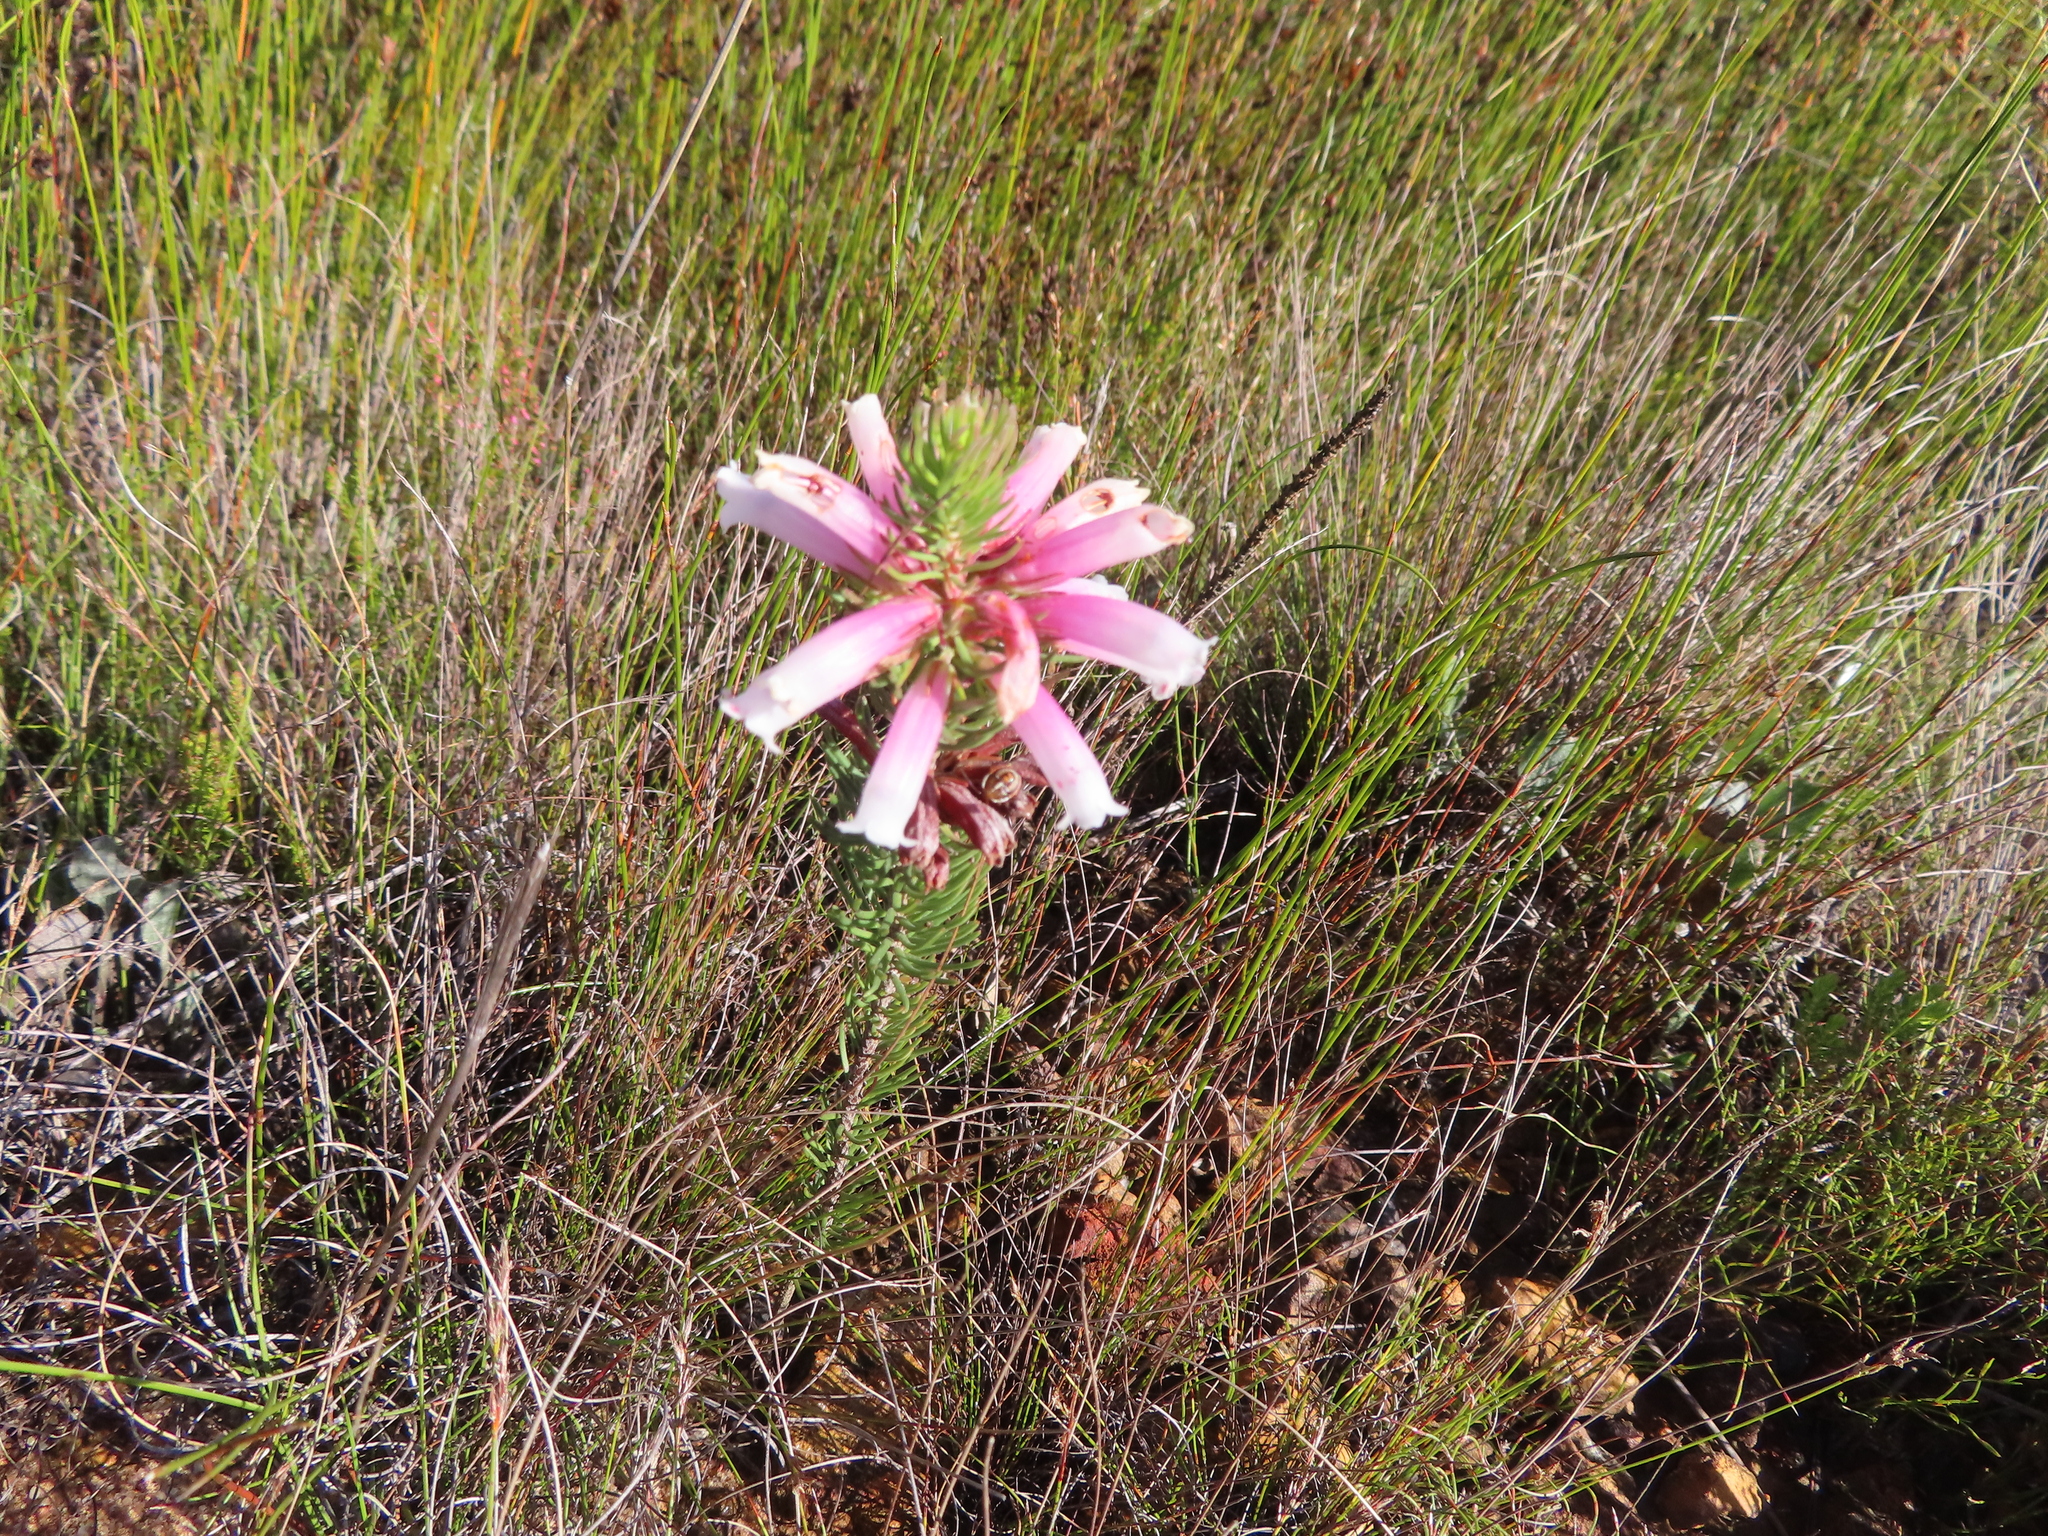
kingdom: Plantae
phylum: Tracheophyta
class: Magnoliopsida
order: Ericales
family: Ericaceae
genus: Erica
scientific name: Erica viscaria
